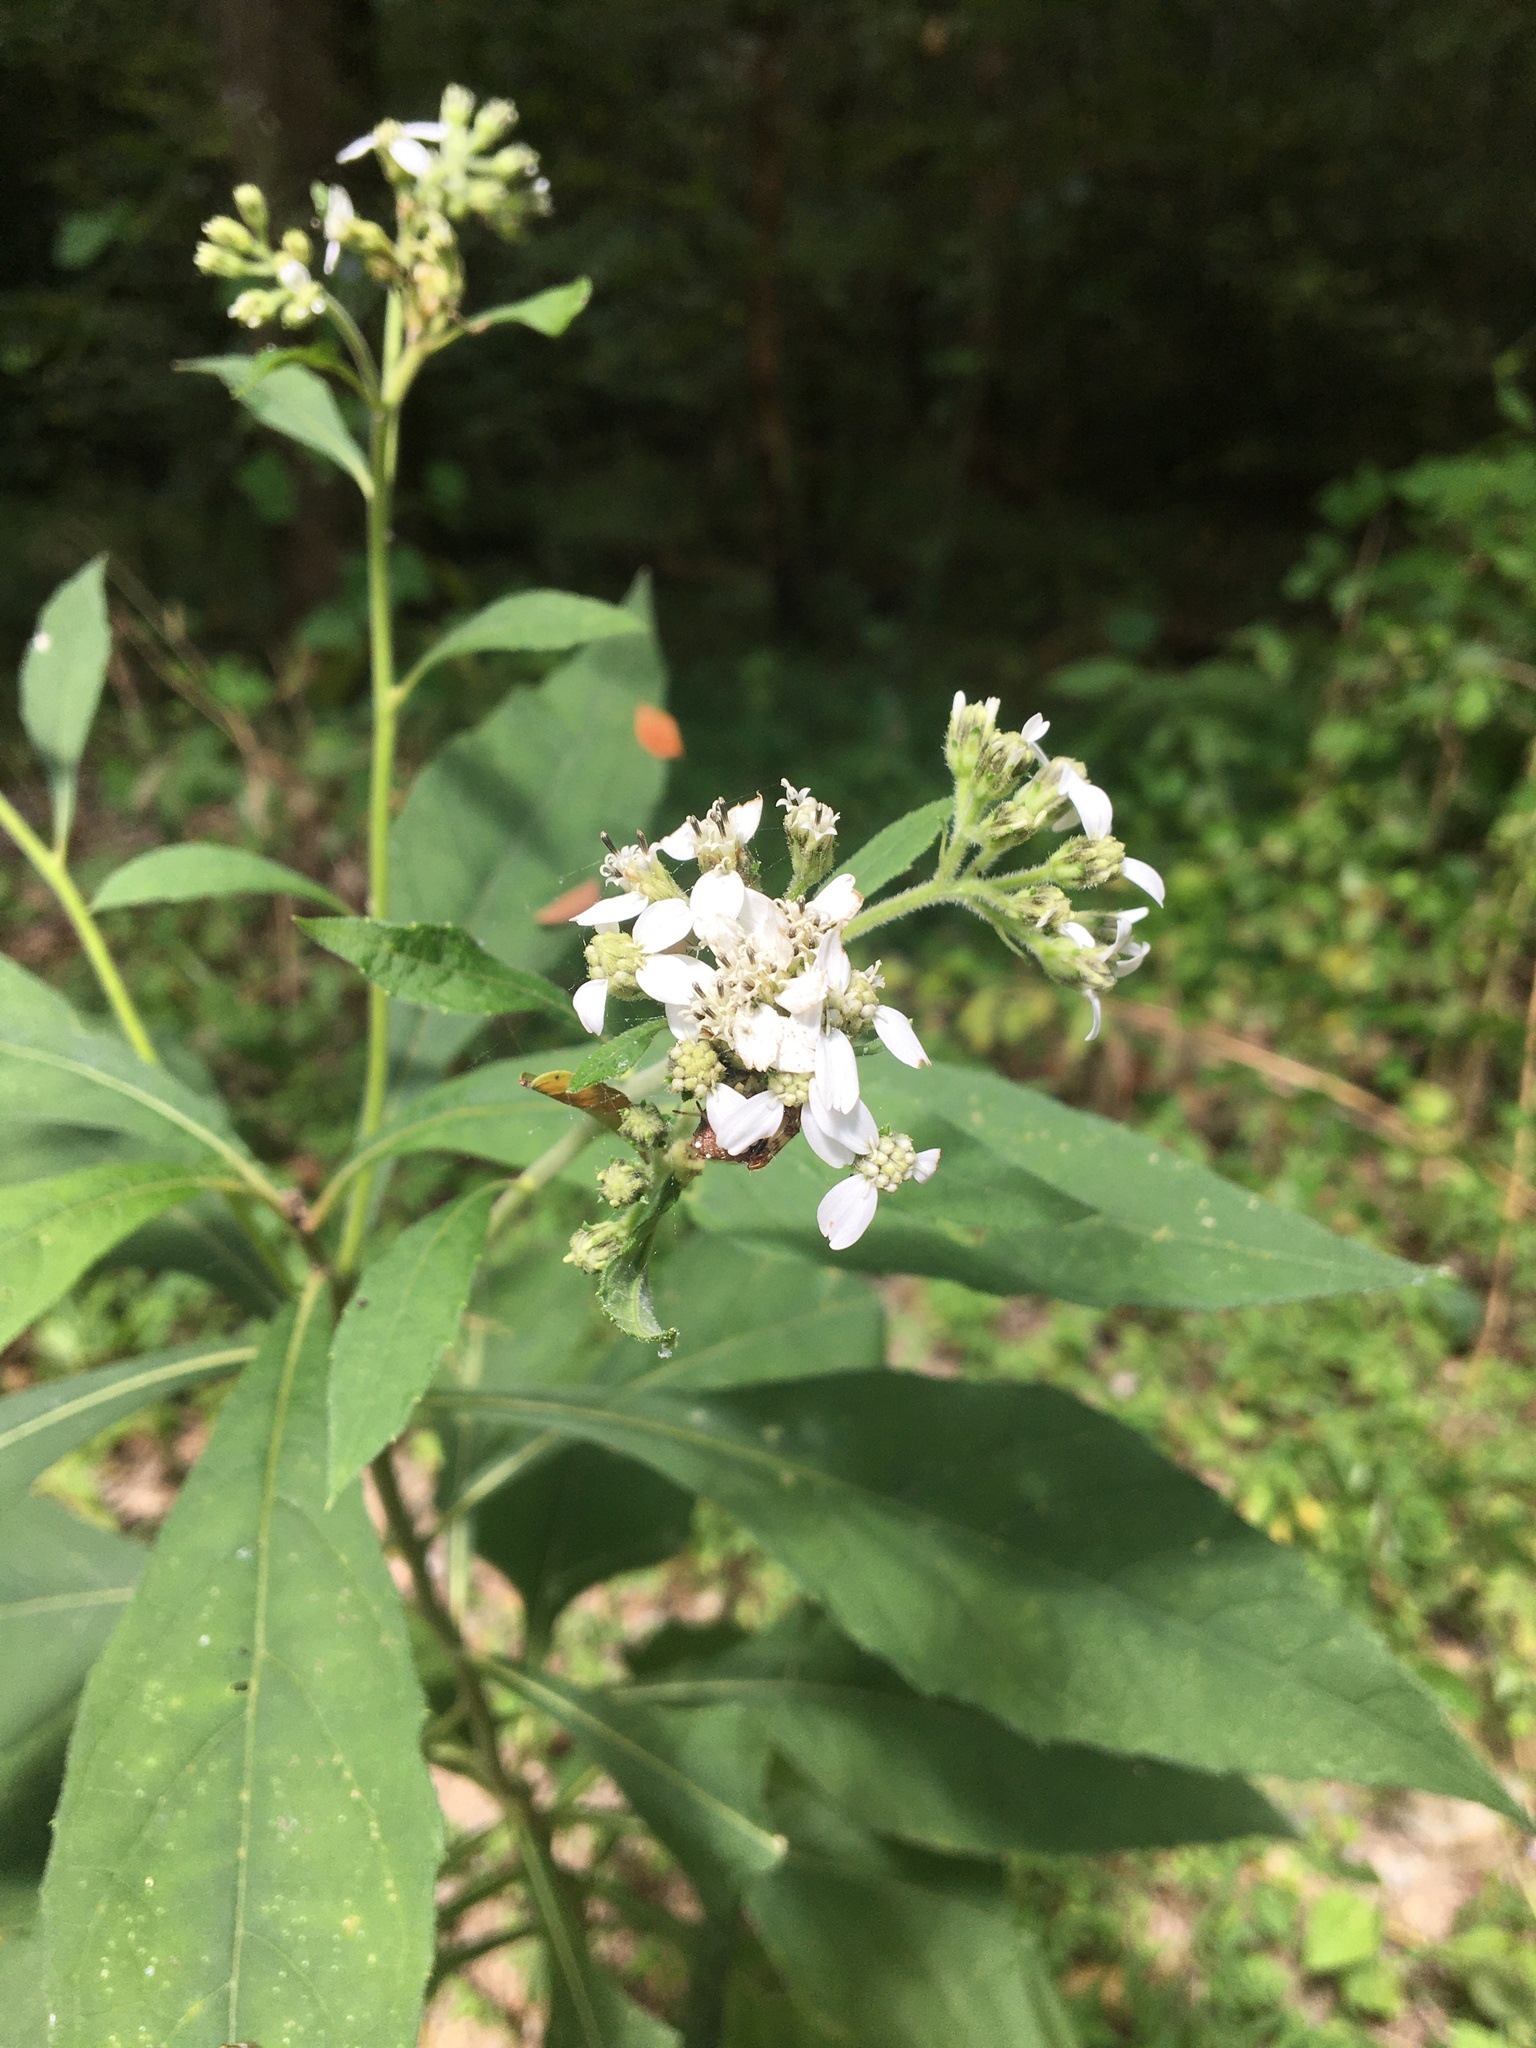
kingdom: Plantae
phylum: Tracheophyta
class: Magnoliopsida
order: Asterales
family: Asteraceae
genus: Verbesina
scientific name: Verbesina virginica
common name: Frostweed
